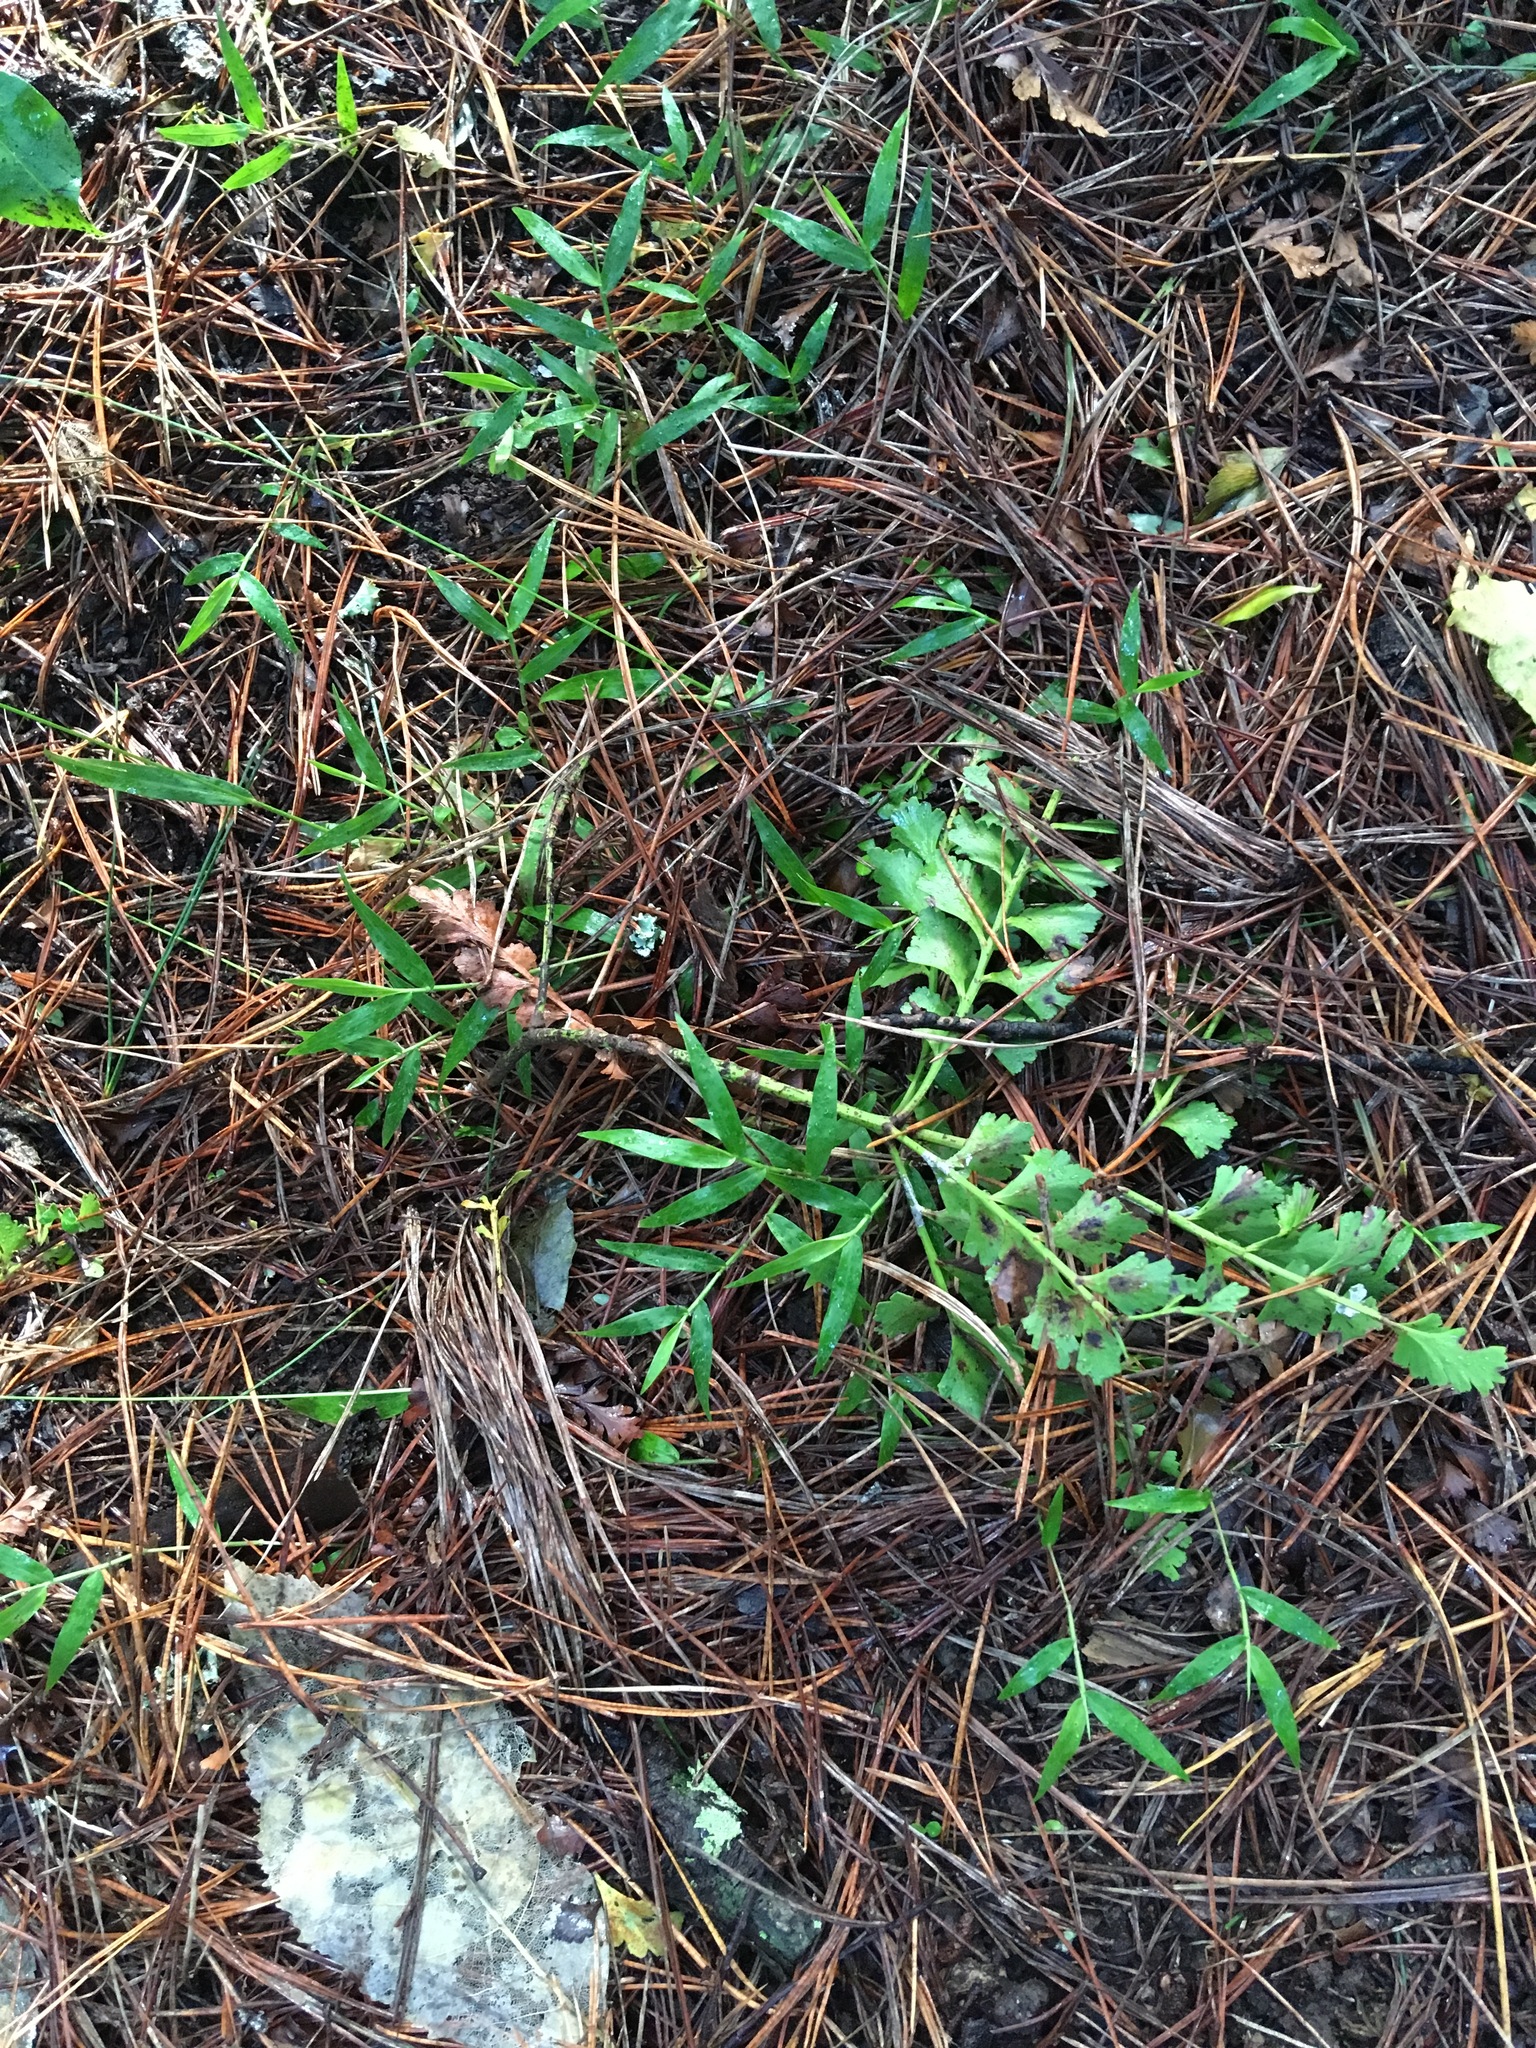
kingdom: Plantae
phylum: Tracheophyta
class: Liliopsida
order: Poales
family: Poaceae
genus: Oplismenus
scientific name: Oplismenus hirtellus
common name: Basketgrass
